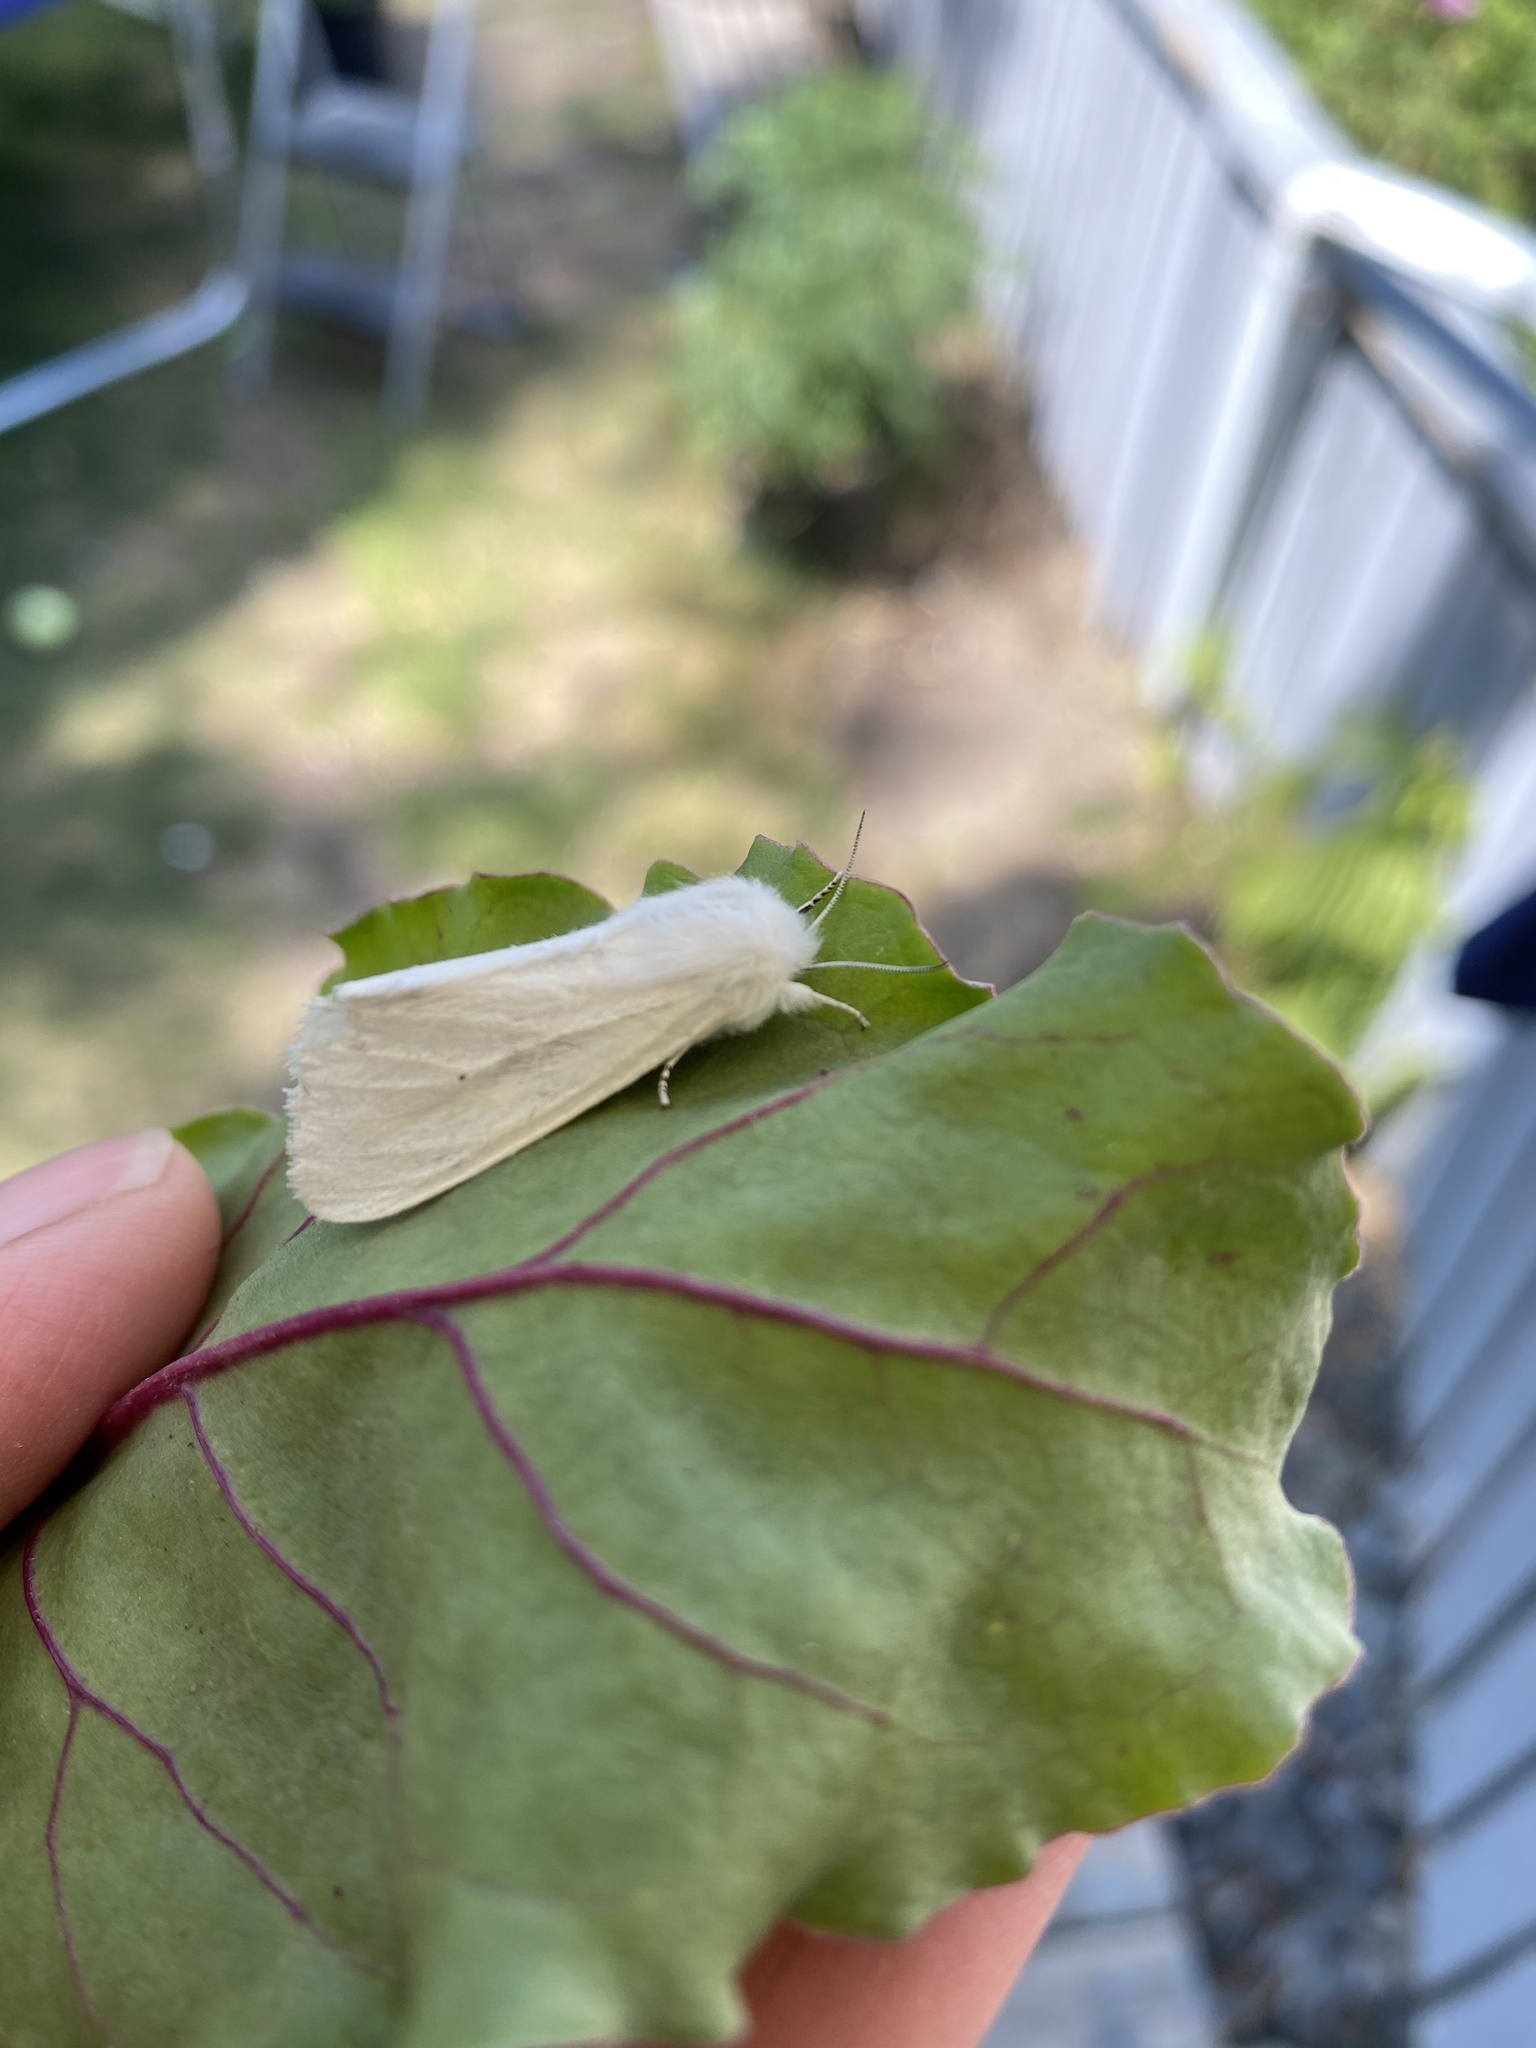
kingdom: Animalia
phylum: Arthropoda
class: Insecta
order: Lepidoptera
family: Erebidae
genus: Spilosoma
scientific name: Spilosoma virginica
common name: Virginia tiger moth
